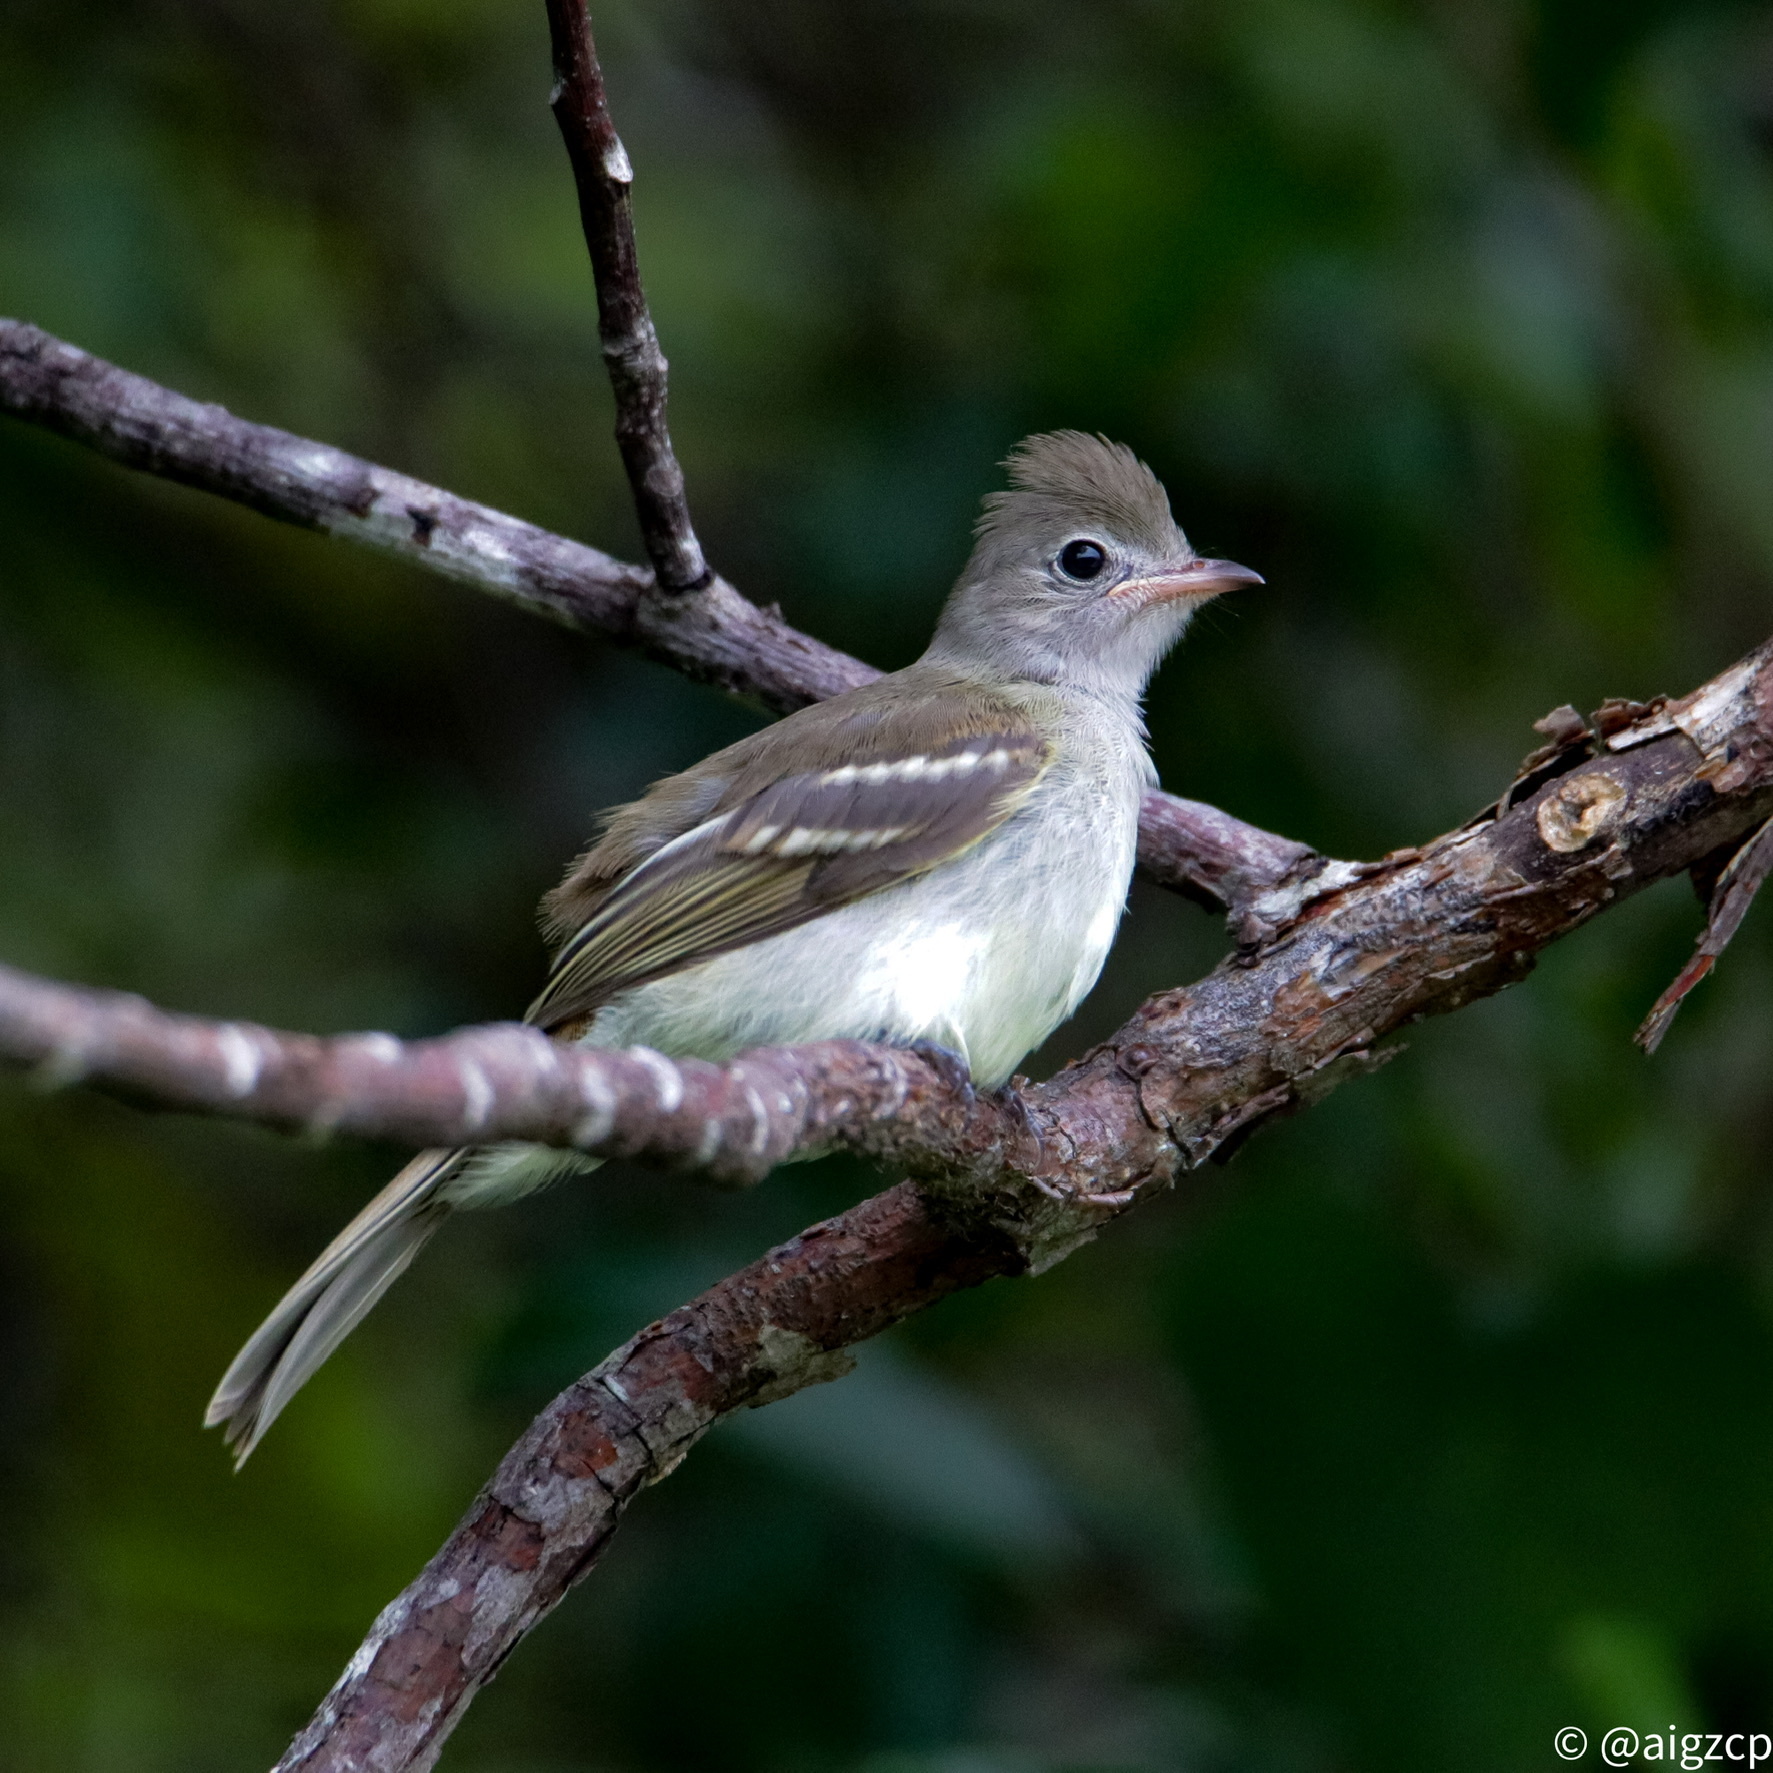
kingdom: Animalia
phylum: Chordata
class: Aves
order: Passeriformes
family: Tyrannidae
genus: Elaenia
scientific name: Elaenia flavogaster
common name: Yellow-bellied elaenia
